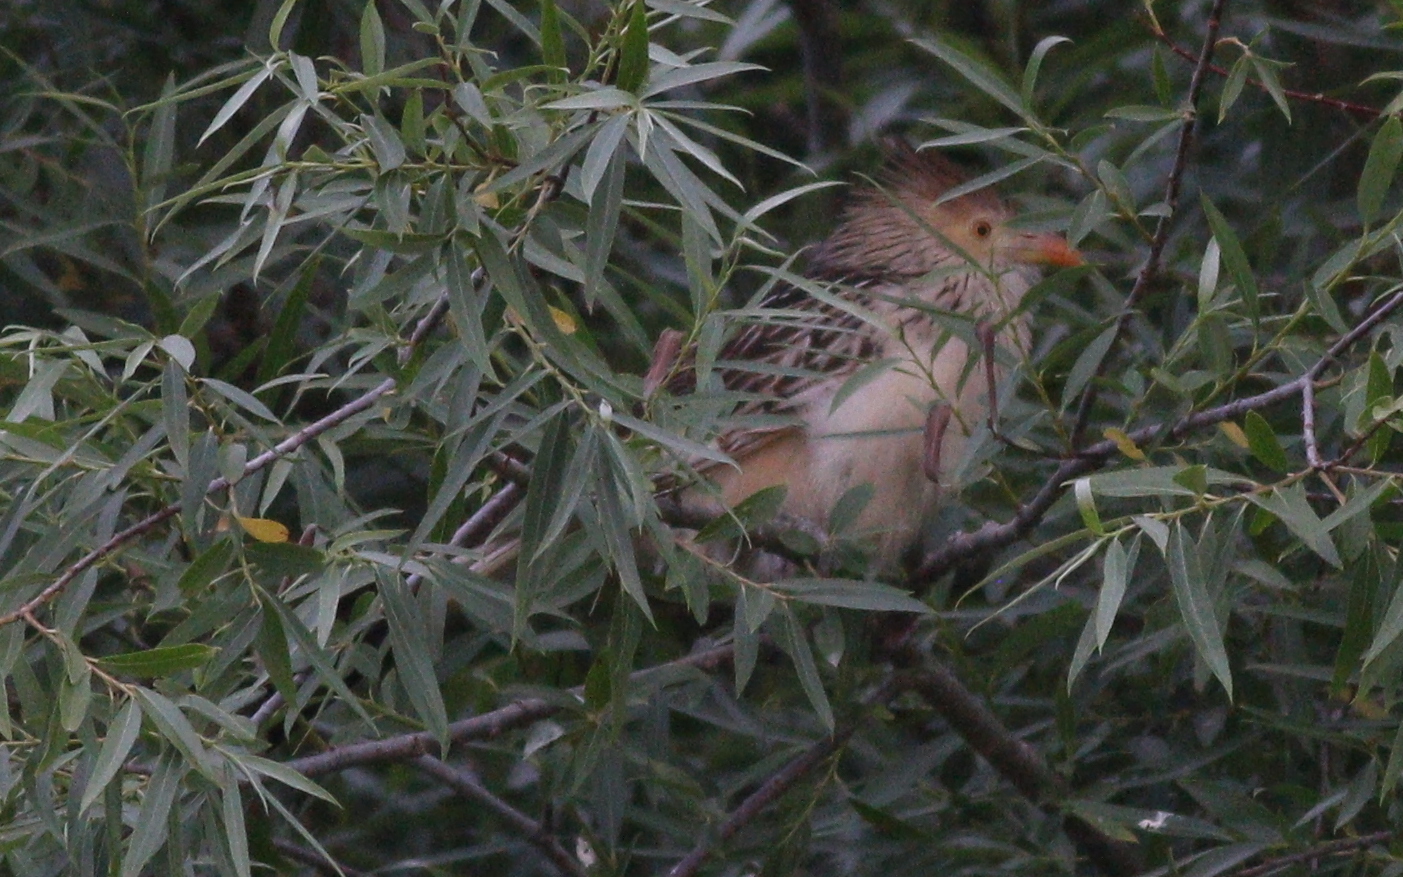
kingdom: Animalia
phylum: Chordata
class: Aves
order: Cuculiformes
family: Cuculidae
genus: Guira
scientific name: Guira guira
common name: Guira cuckoo
